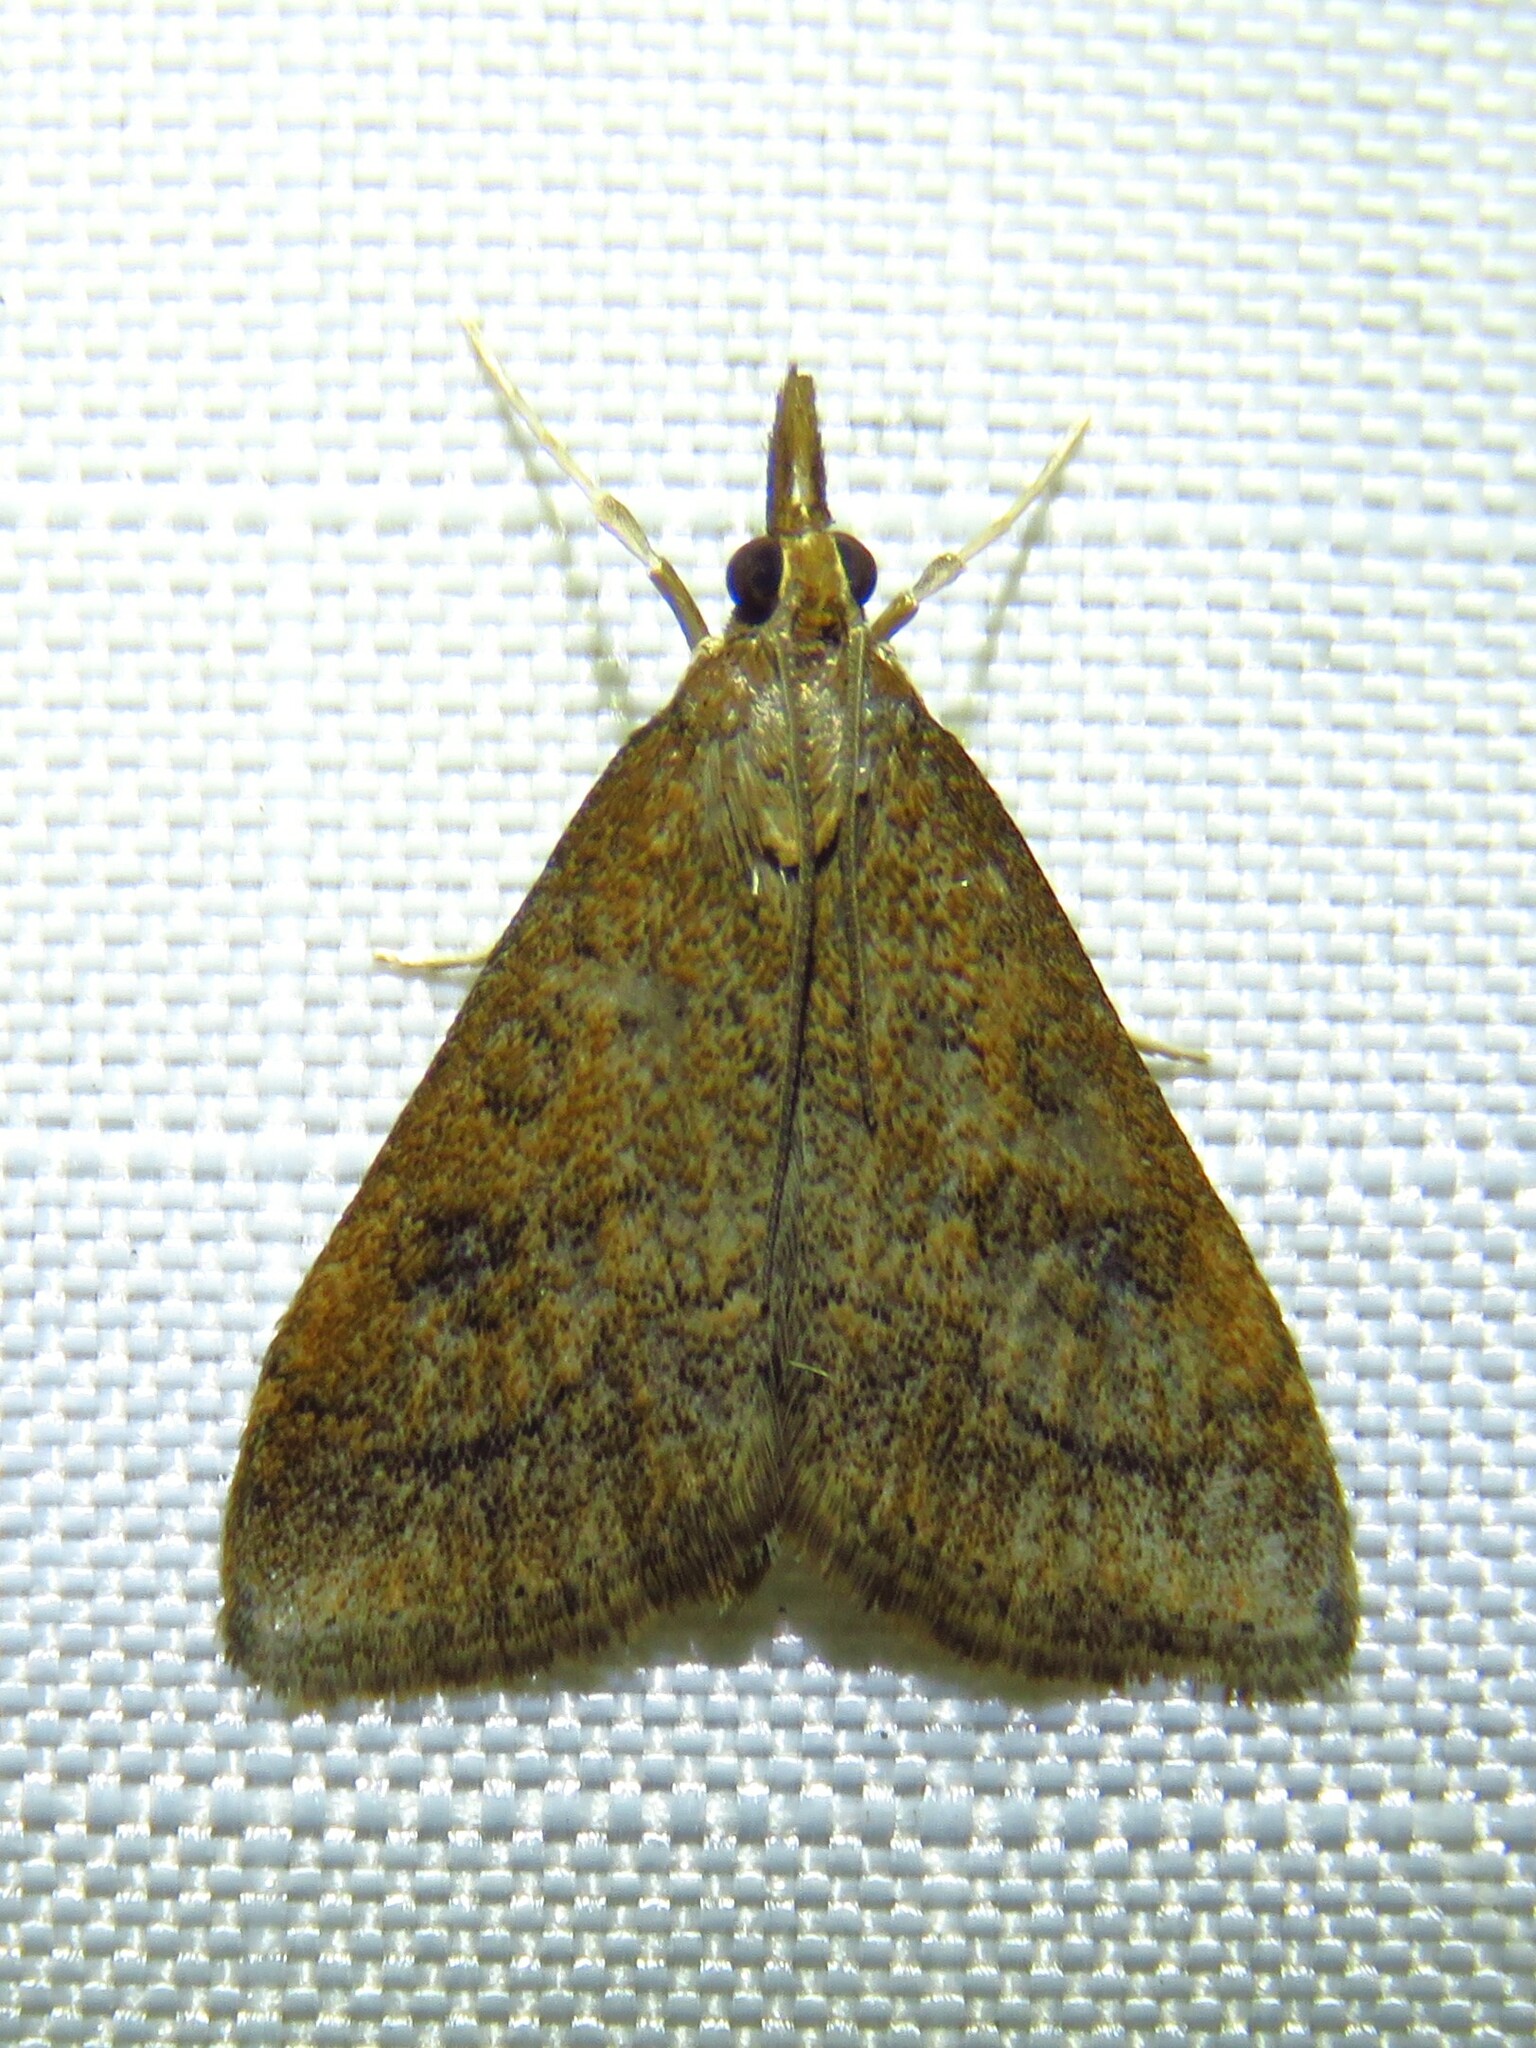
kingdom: Animalia
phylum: Arthropoda
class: Insecta
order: Lepidoptera
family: Crambidae
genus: Udea
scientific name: Udea rubigalis
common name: Celery leaftier moth
